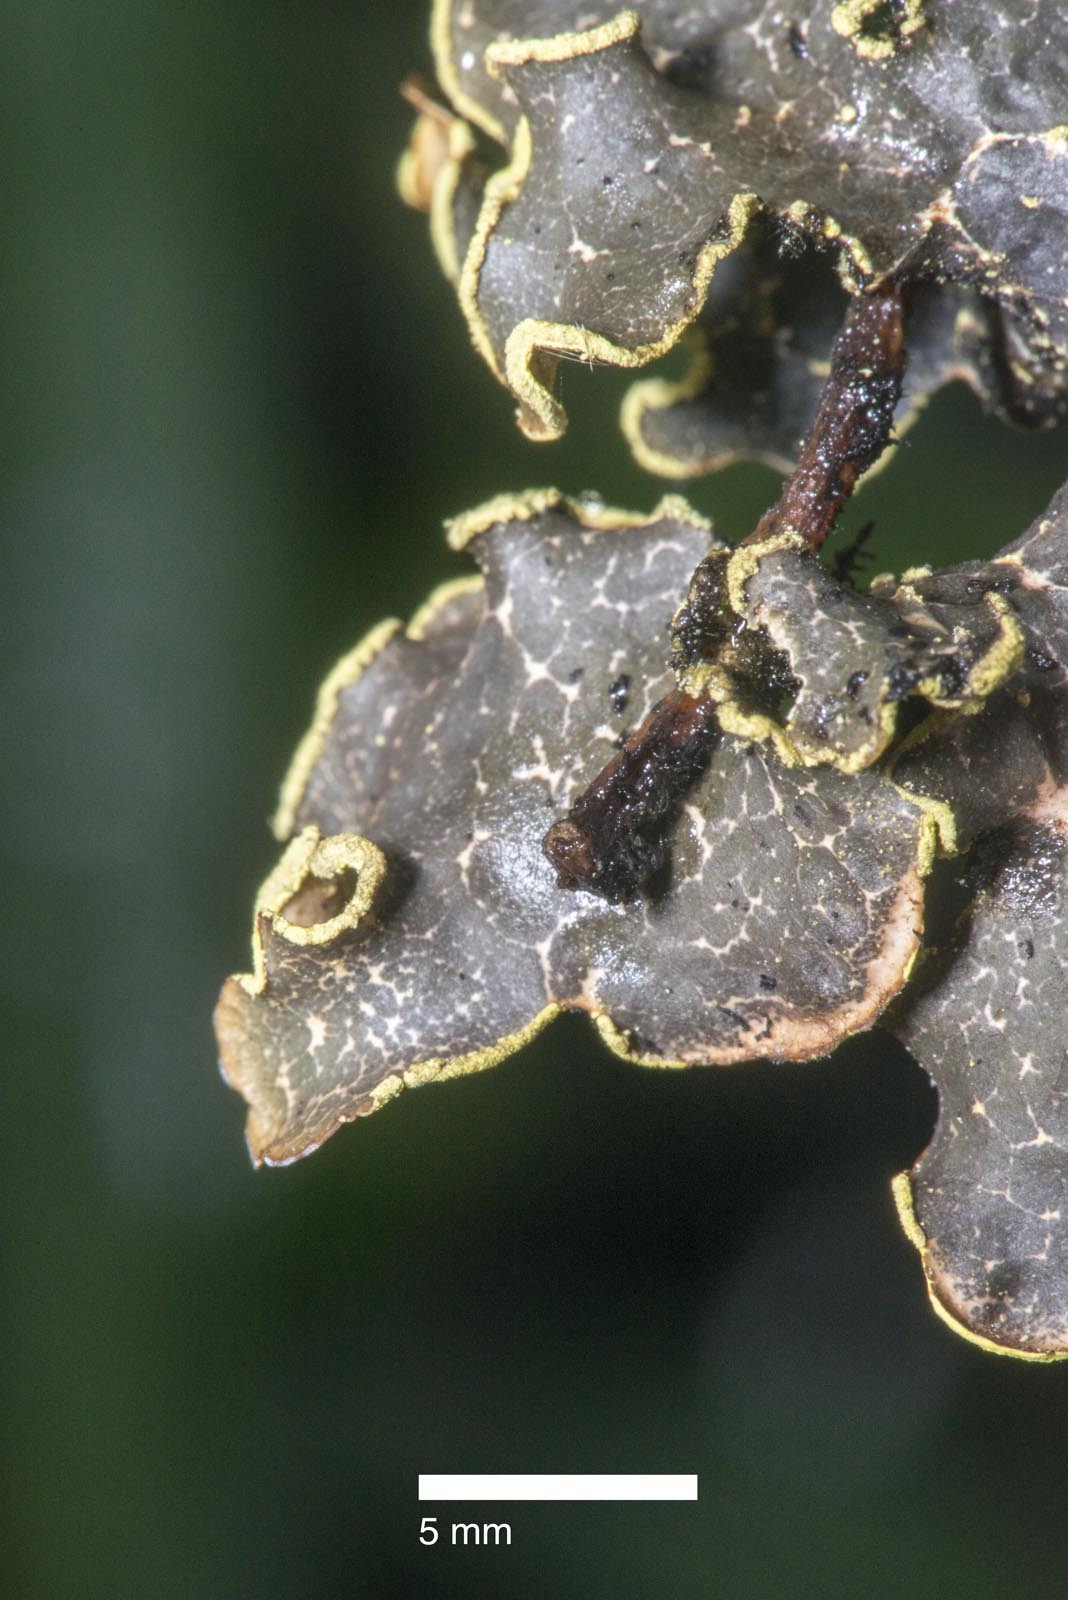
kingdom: Fungi
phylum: Ascomycota
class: Lecanoromycetes
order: Peltigerales
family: Lobariaceae
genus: Pseudocyphellaria
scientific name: Pseudocyphellaria crocata
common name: Golden specklebelly
